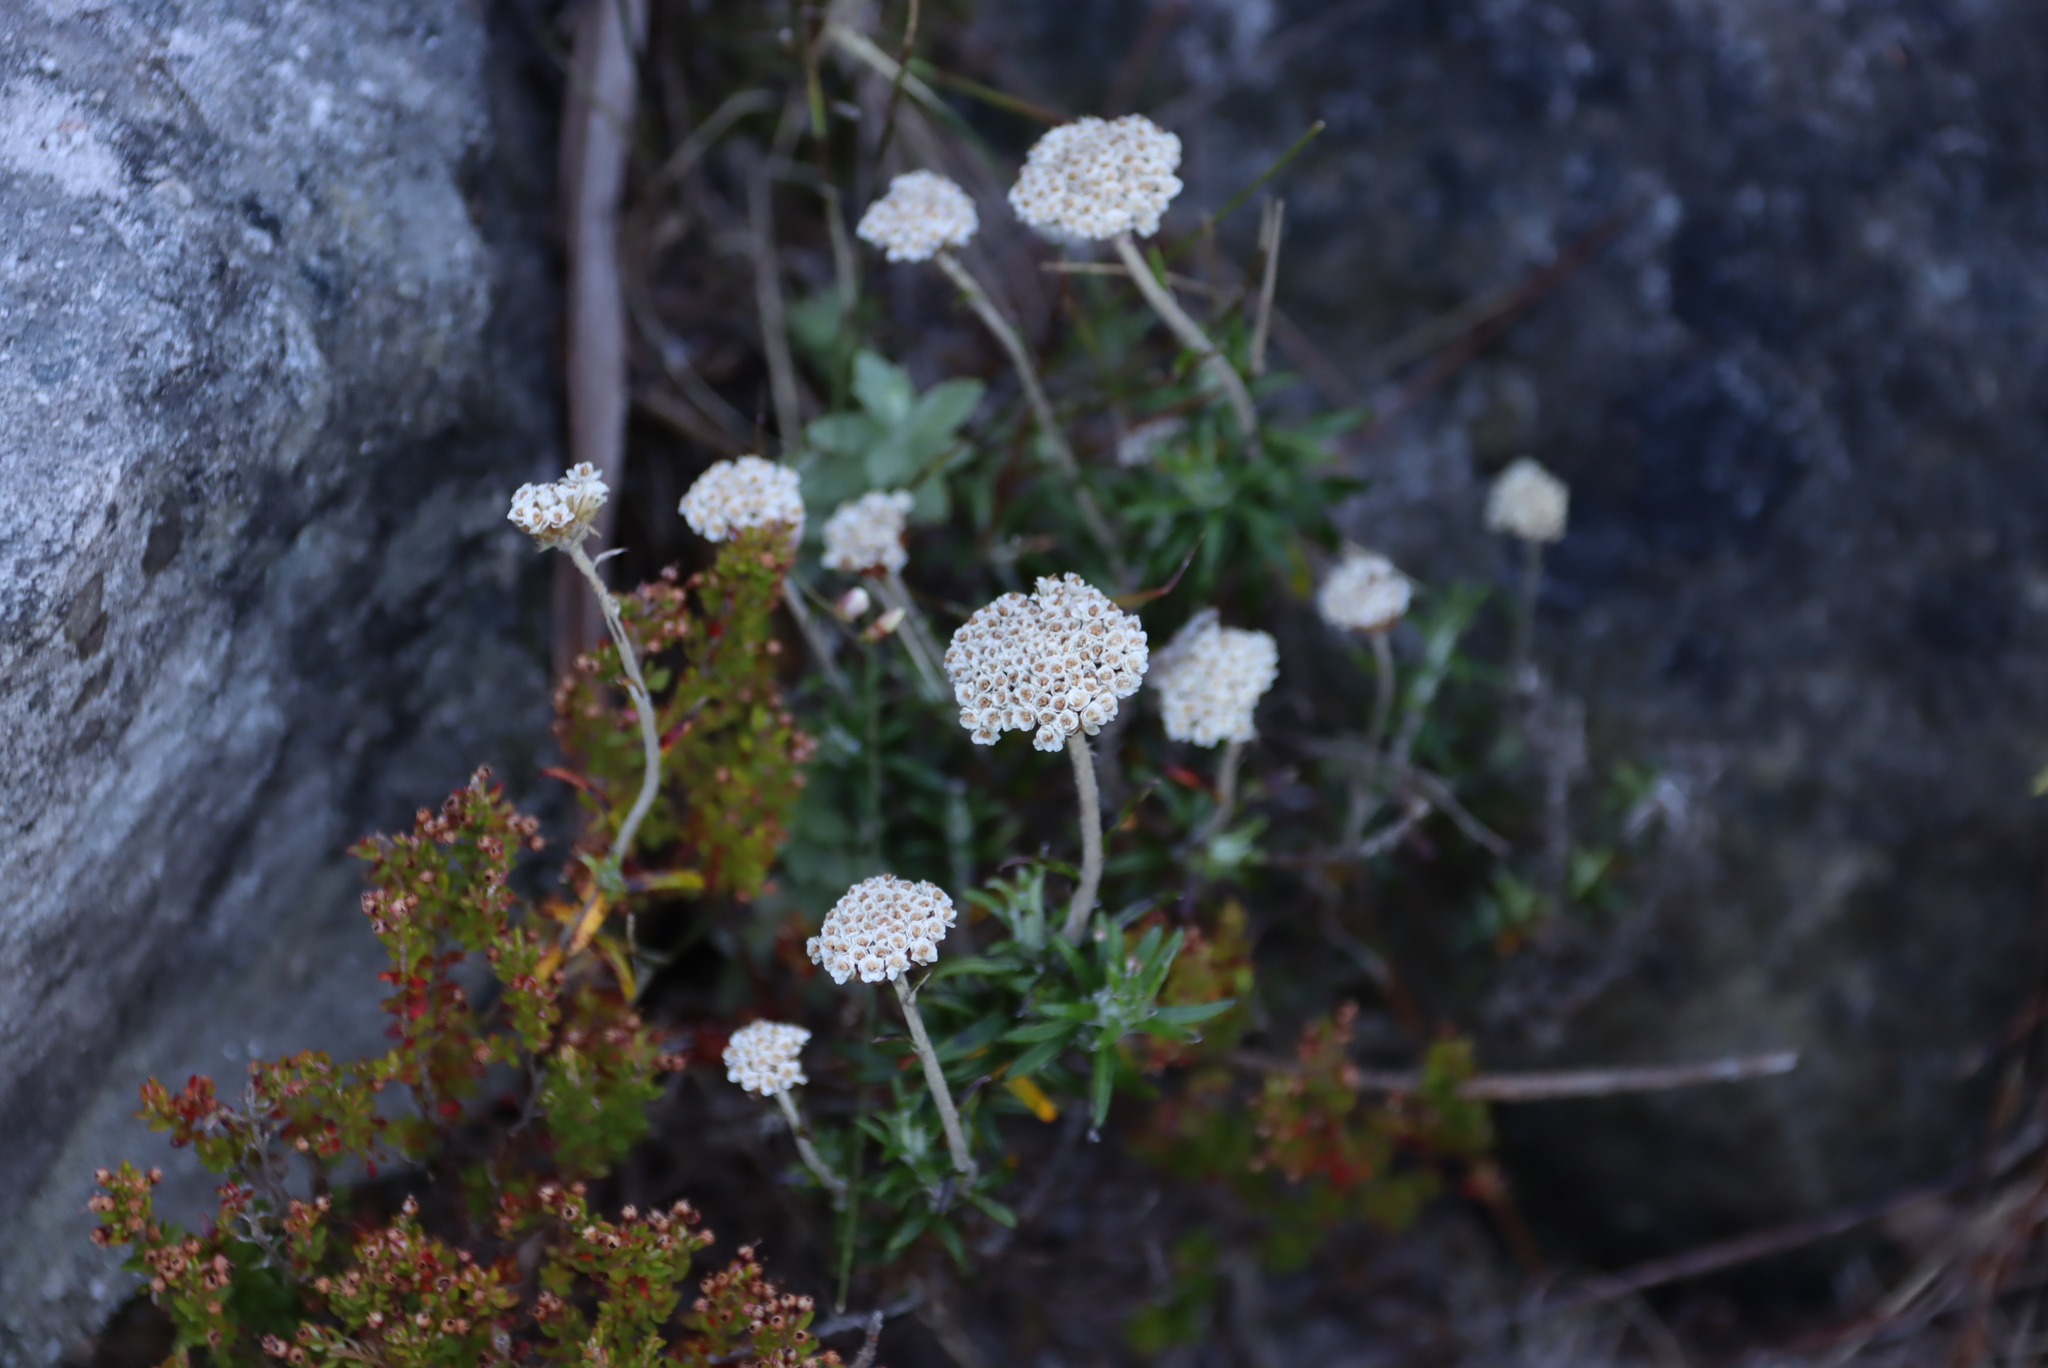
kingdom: Plantae
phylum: Tracheophyta
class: Magnoliopsida
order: Asterales
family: Asteraceae
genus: Anaxeton
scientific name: Anaxeton arborescens
